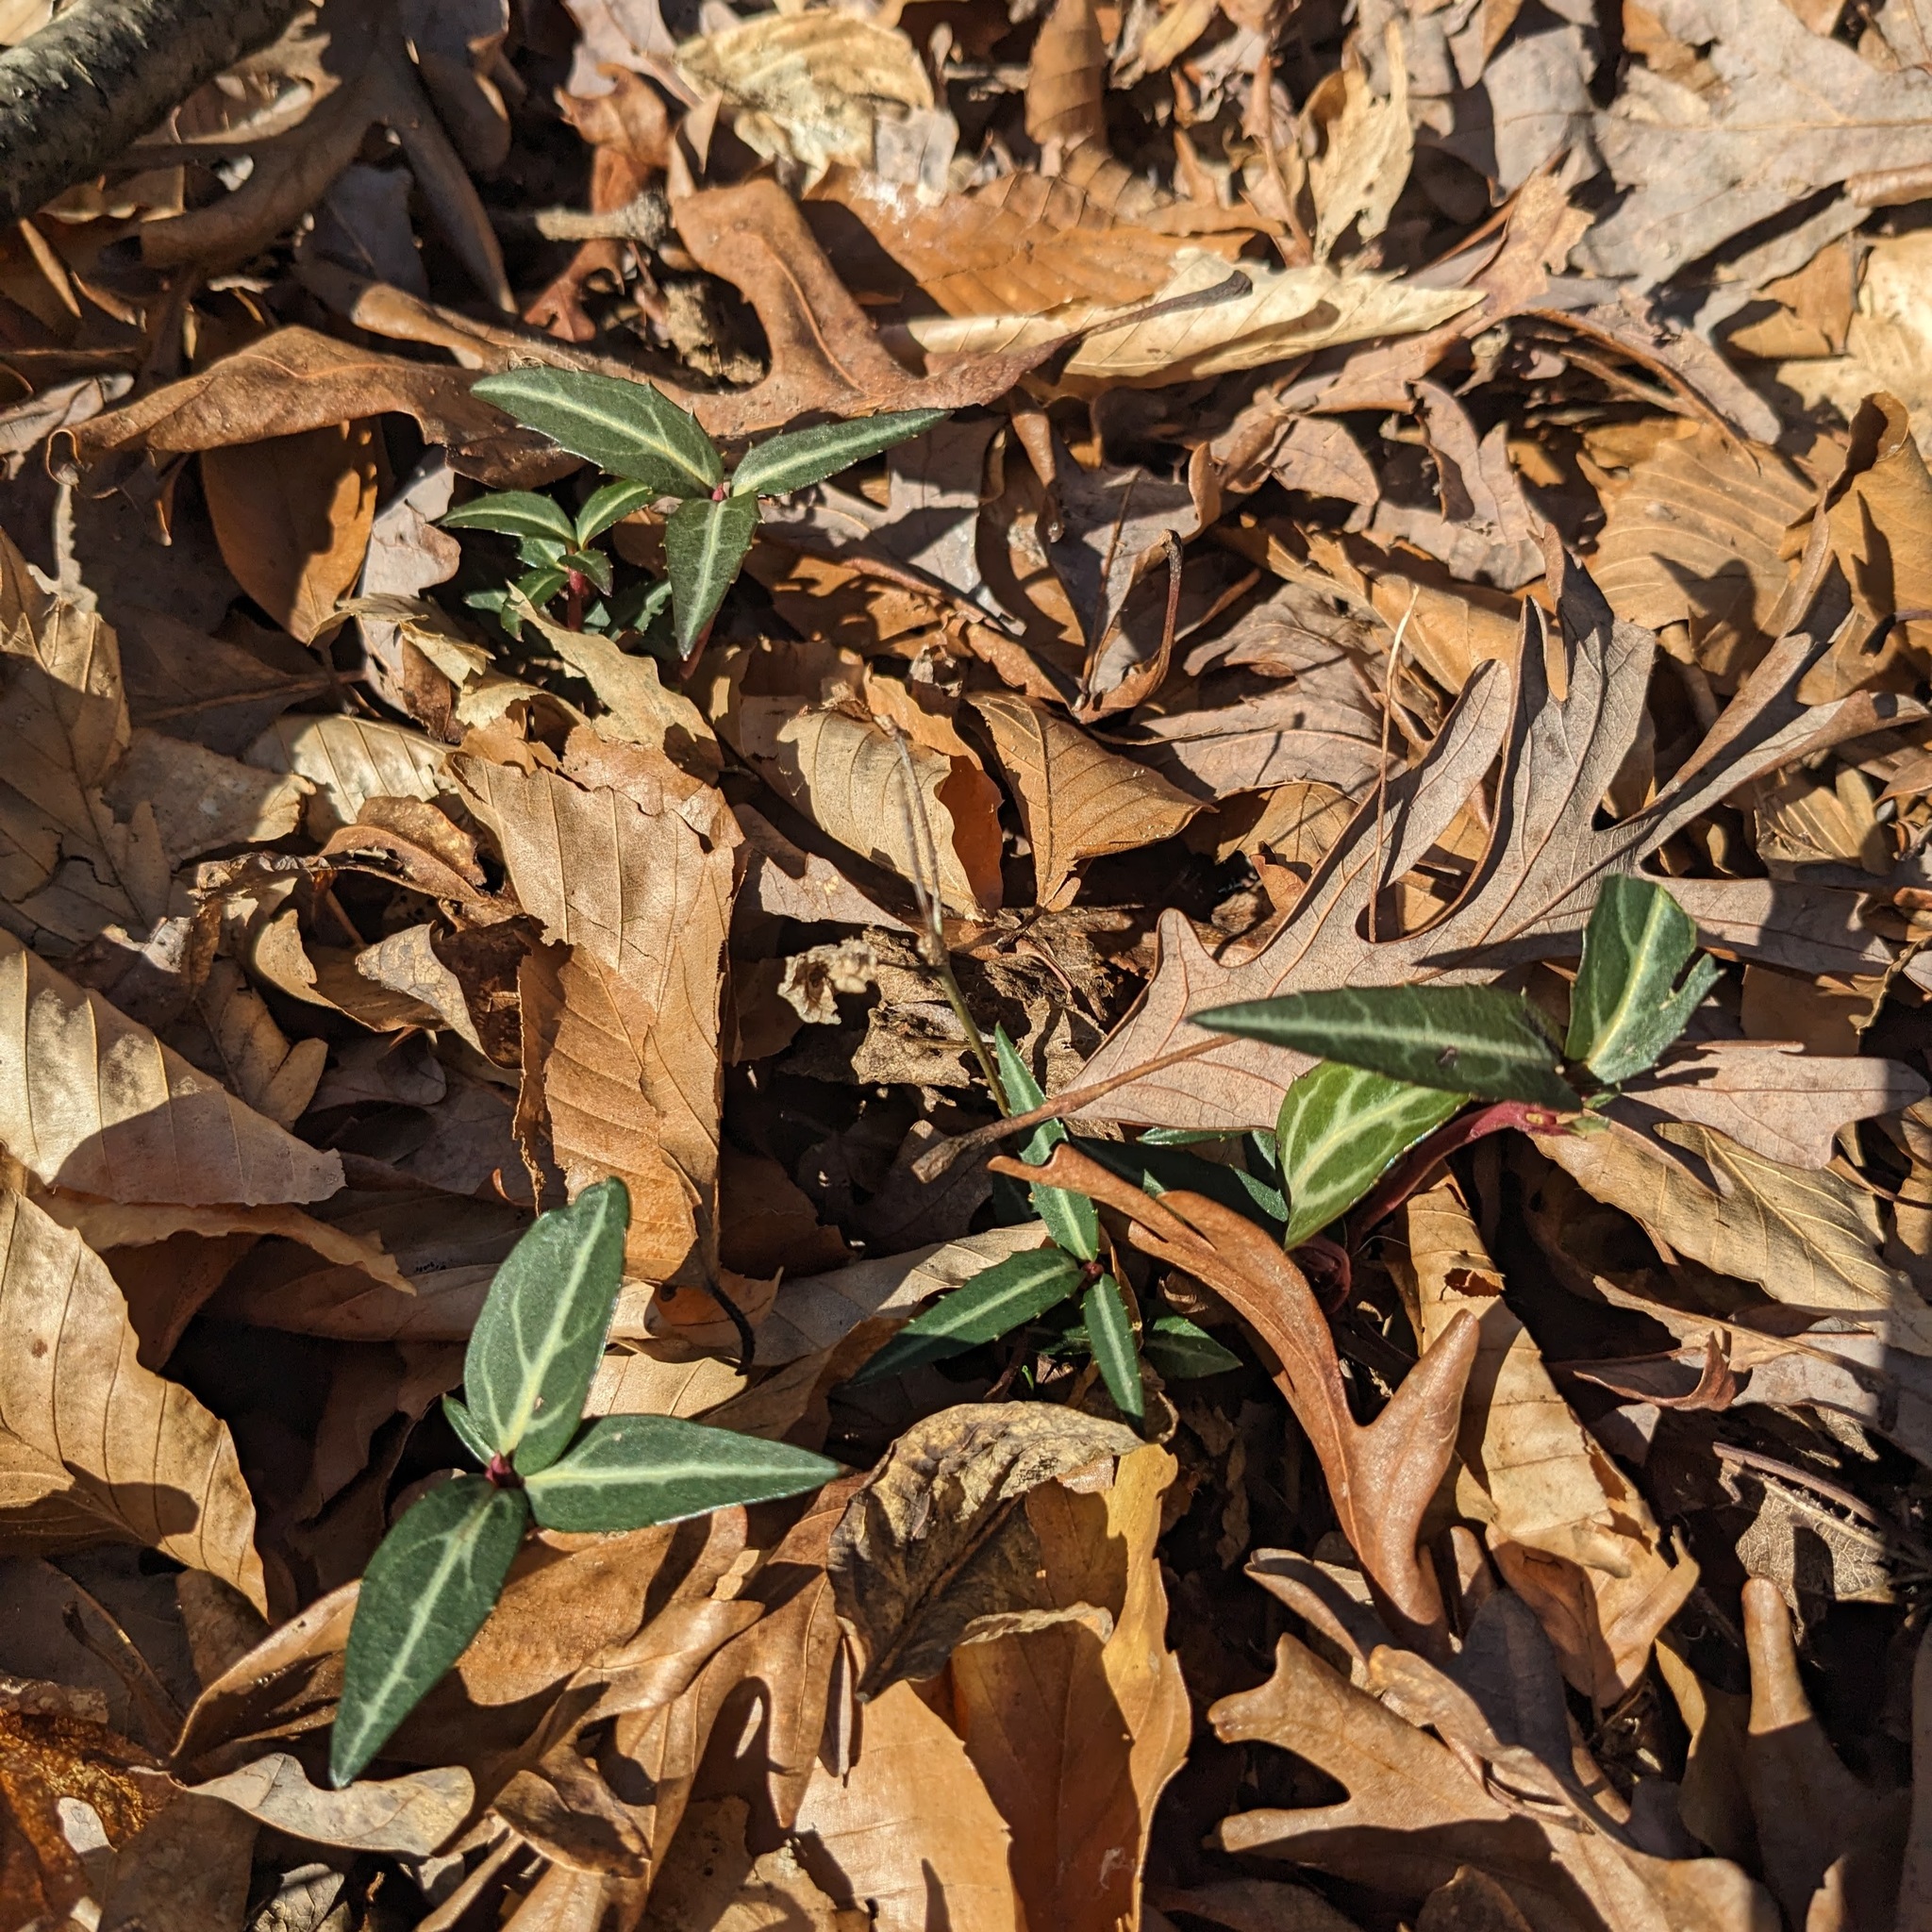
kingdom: Plantae
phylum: Tracheophyta
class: Magnoliopsida
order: Ericales
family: Ericaceae
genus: Chimaphila
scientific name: Chimaphila maculata
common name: Spotted pipsissewa
